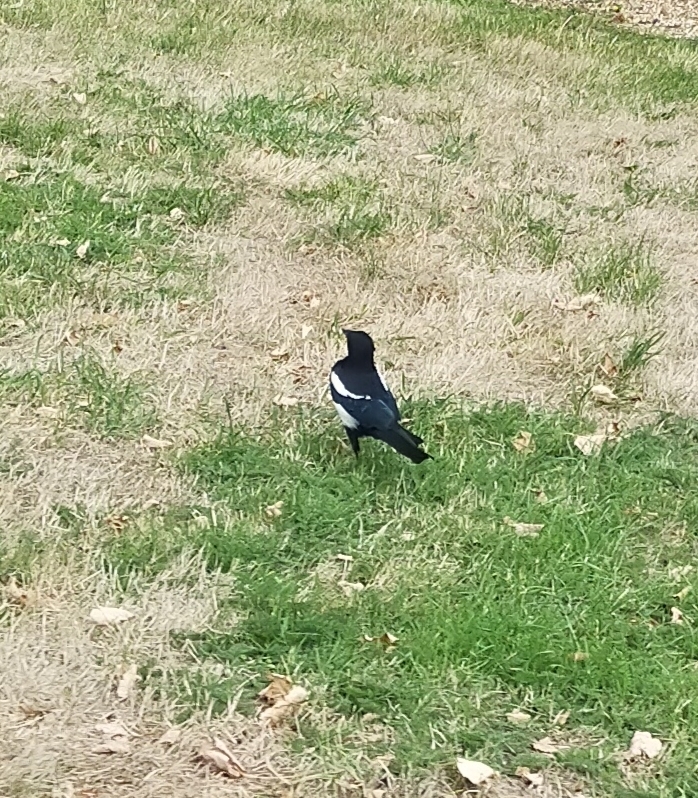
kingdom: Animalia
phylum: Chordata
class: Aves
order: Passeriformes
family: Corvidae
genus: Pica
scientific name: Pica pica
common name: Eurasian magpie
